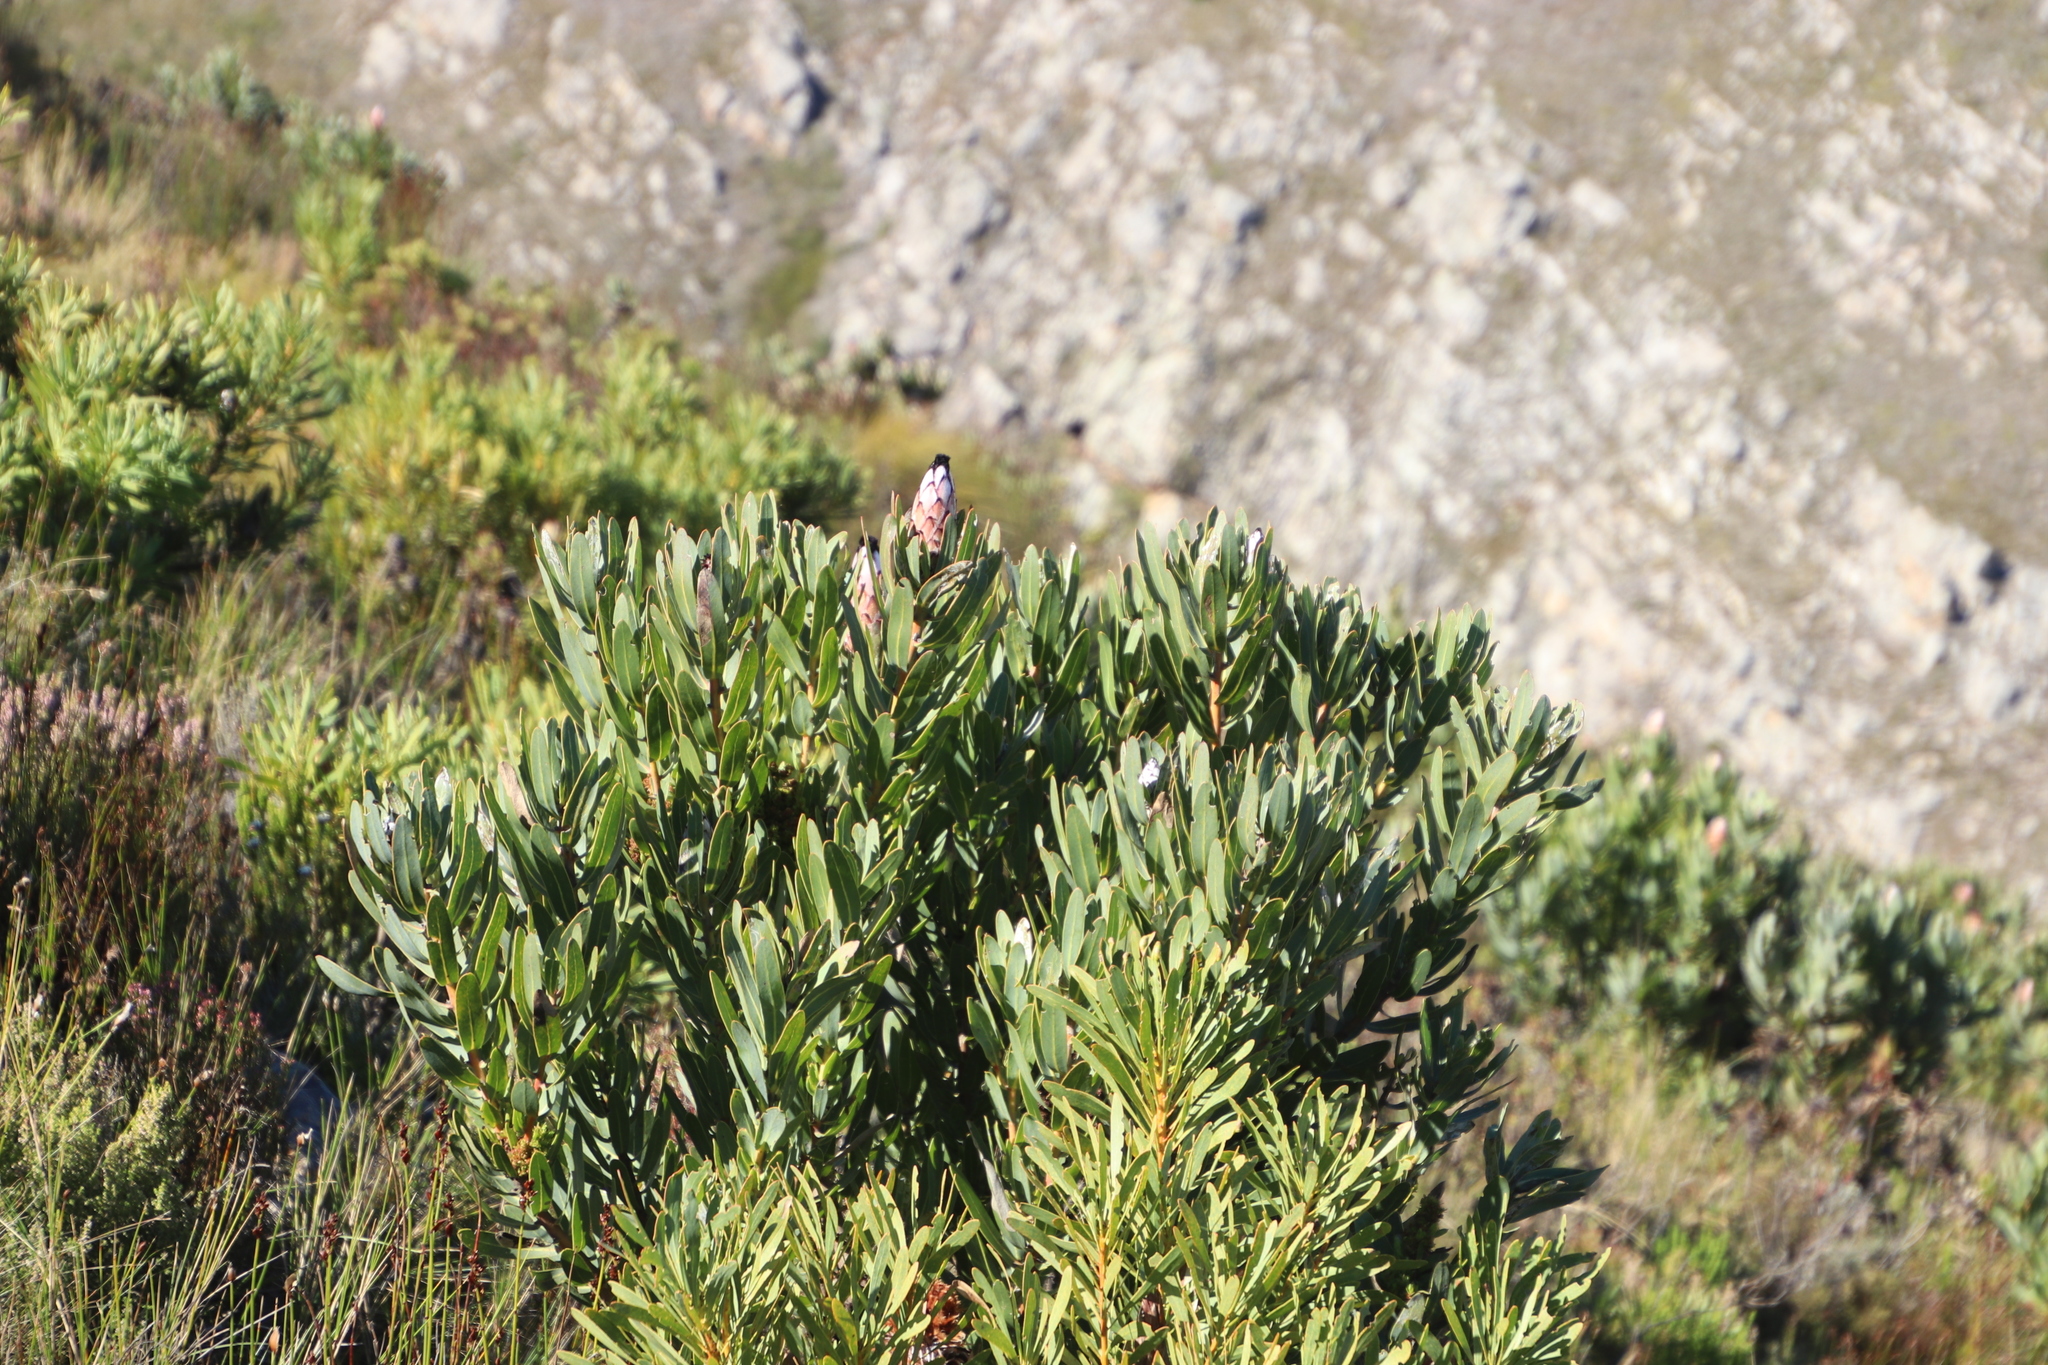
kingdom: Plantae
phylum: Tracheophyta
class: Magnoliopsida
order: Proteales
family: Proteaceae
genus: Protea
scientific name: Protea laurifolia
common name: Grey-leaf sugarbsh
